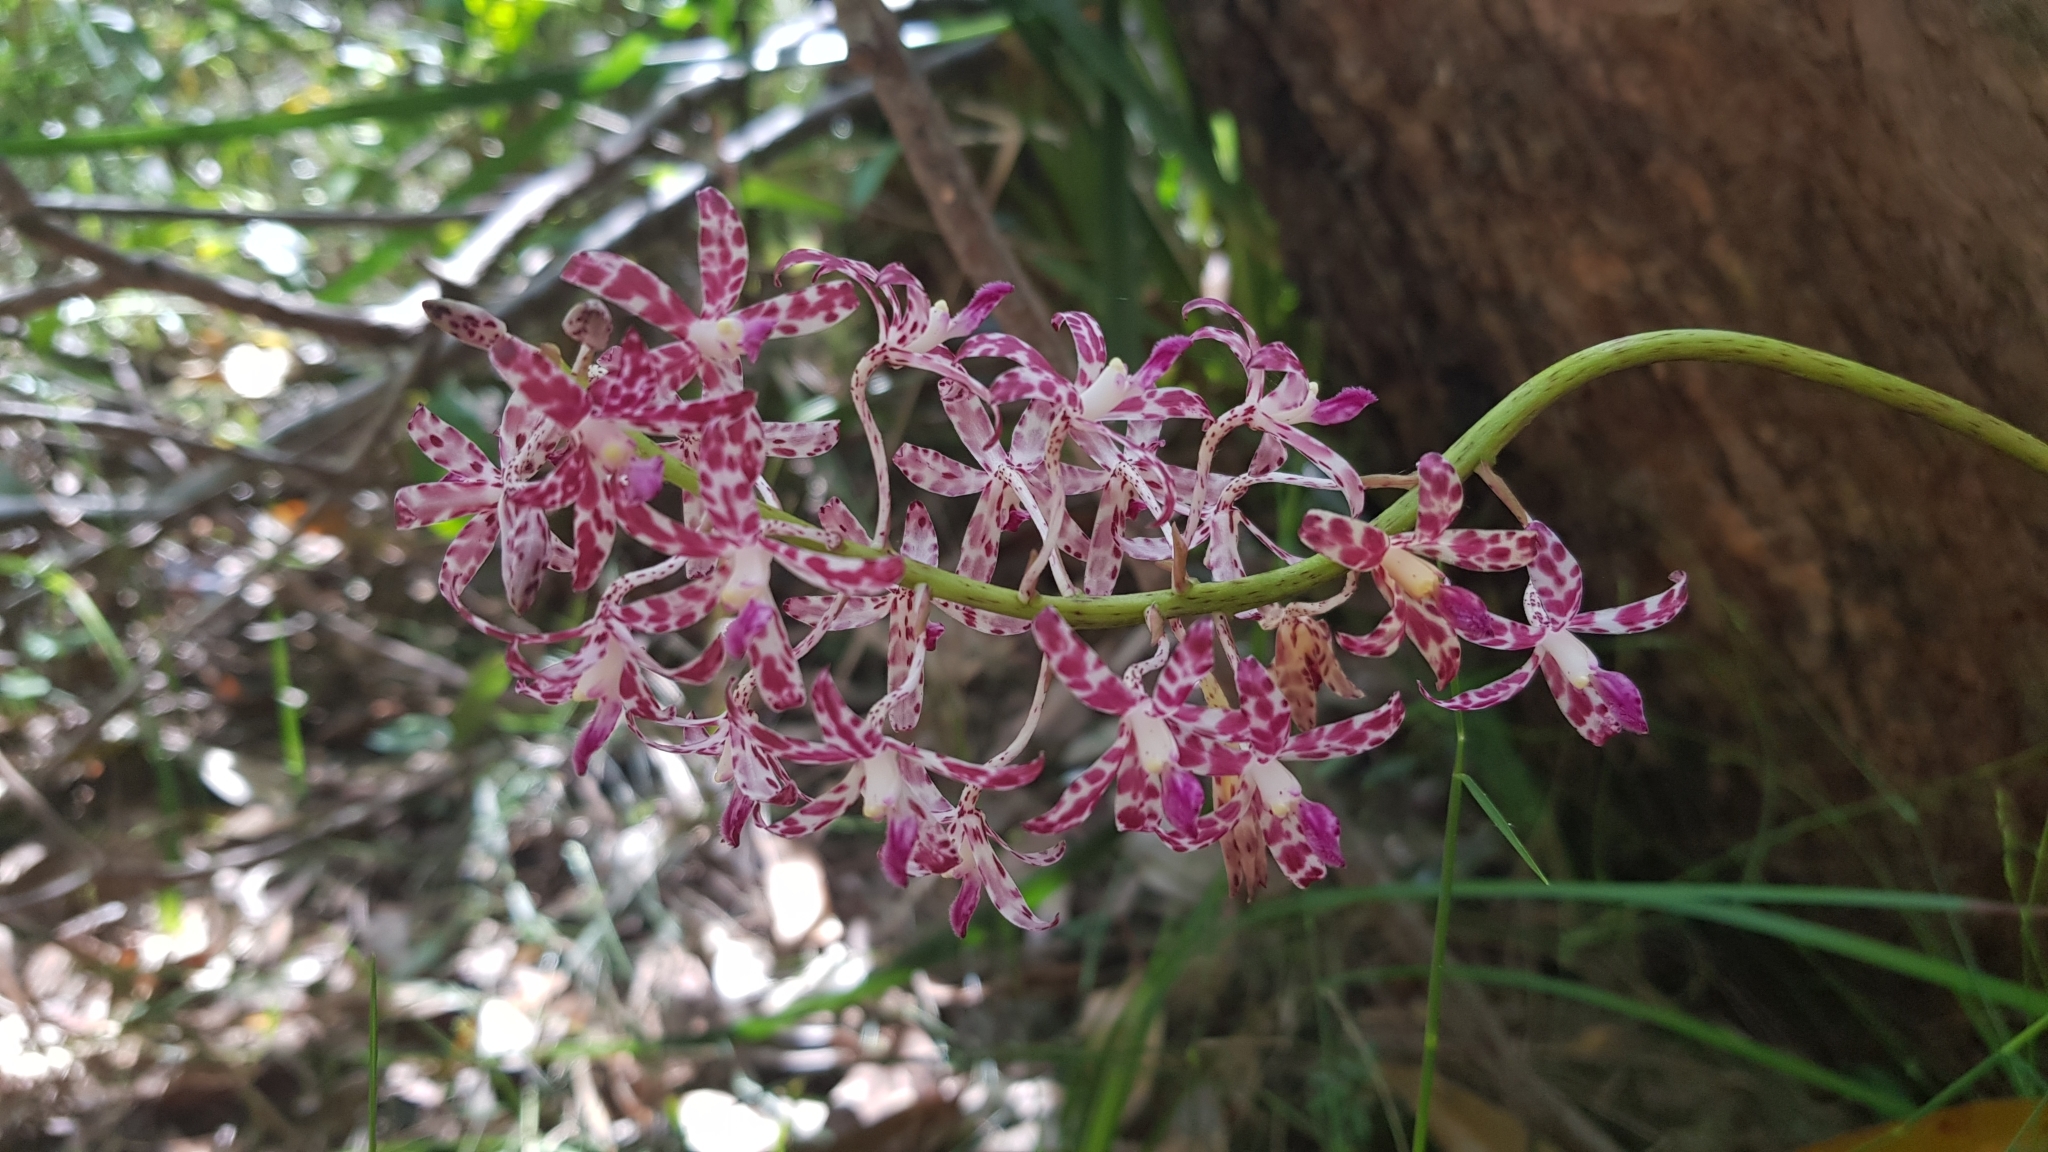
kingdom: Plantae
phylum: Tracheophyta
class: Liliopsida
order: Asparagales
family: Orchidaceae
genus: Dipodium
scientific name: Dipodium variegatum
